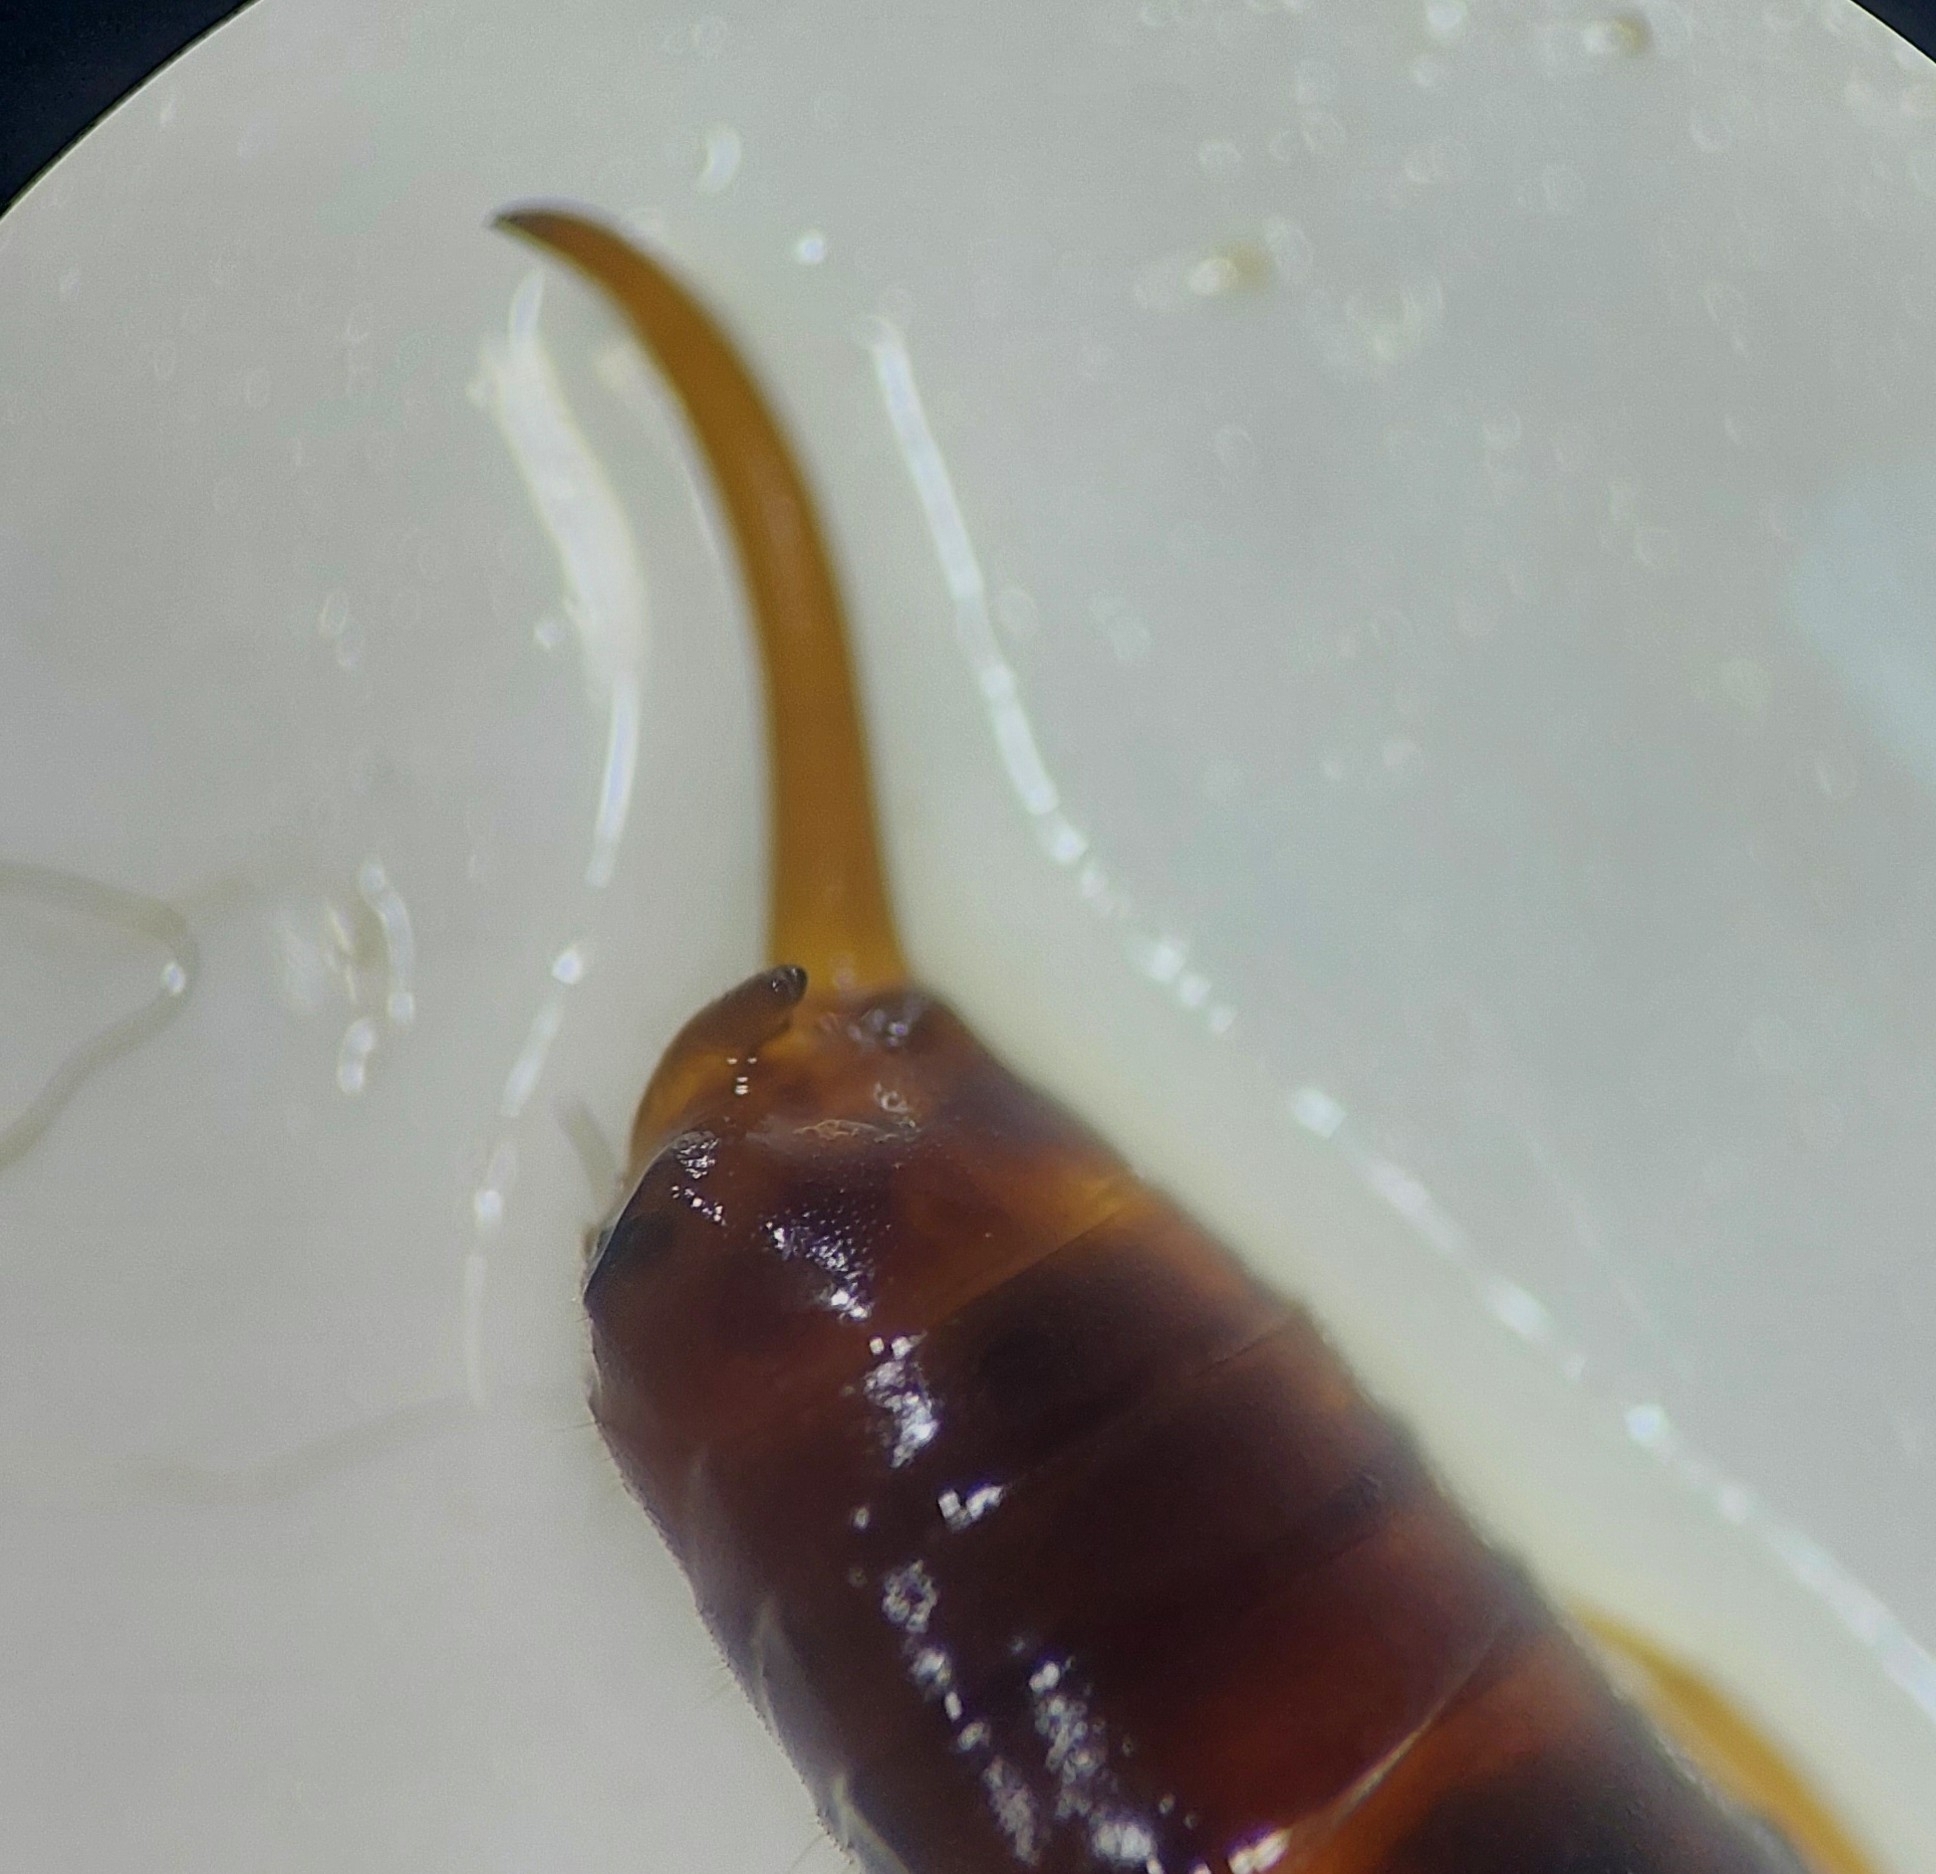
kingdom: Animalia
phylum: Arthropoda
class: Insecta
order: Dermaptera
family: Forficulidae
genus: Chelidurella
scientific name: Chelidurella acanthopygia
